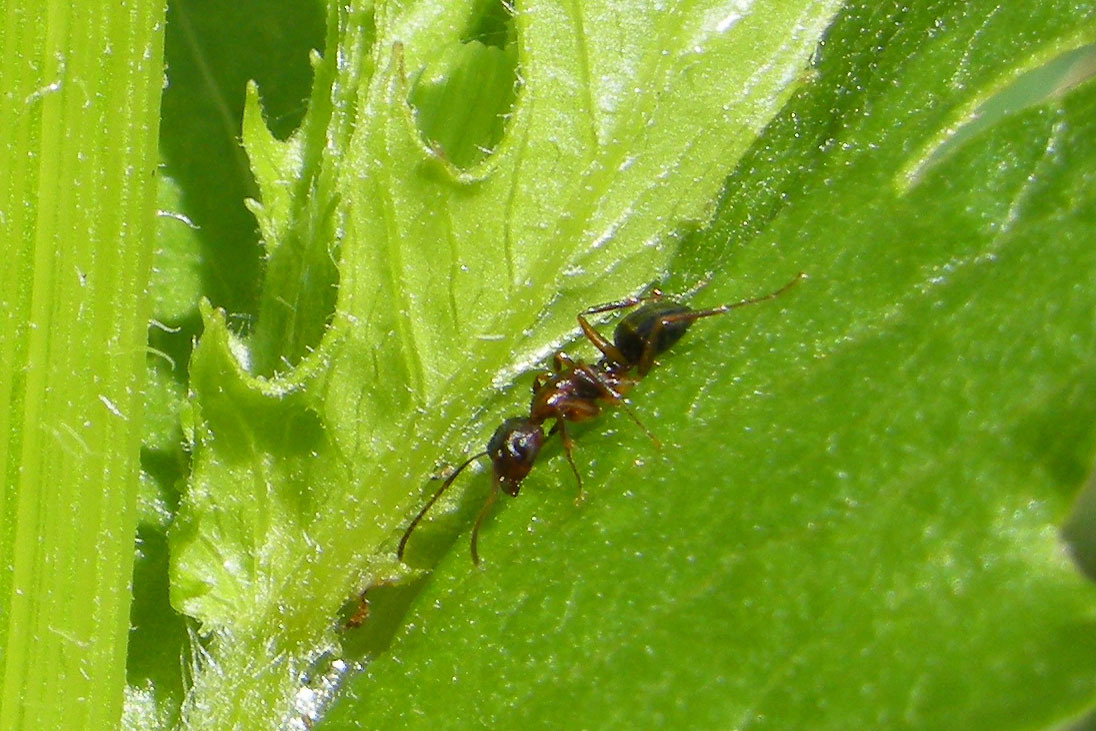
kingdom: Animalia
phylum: Arthropoda
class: Insecta
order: Hymenoptera
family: Formicidae
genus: Camponotus
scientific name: Camponotus subbarbatus
